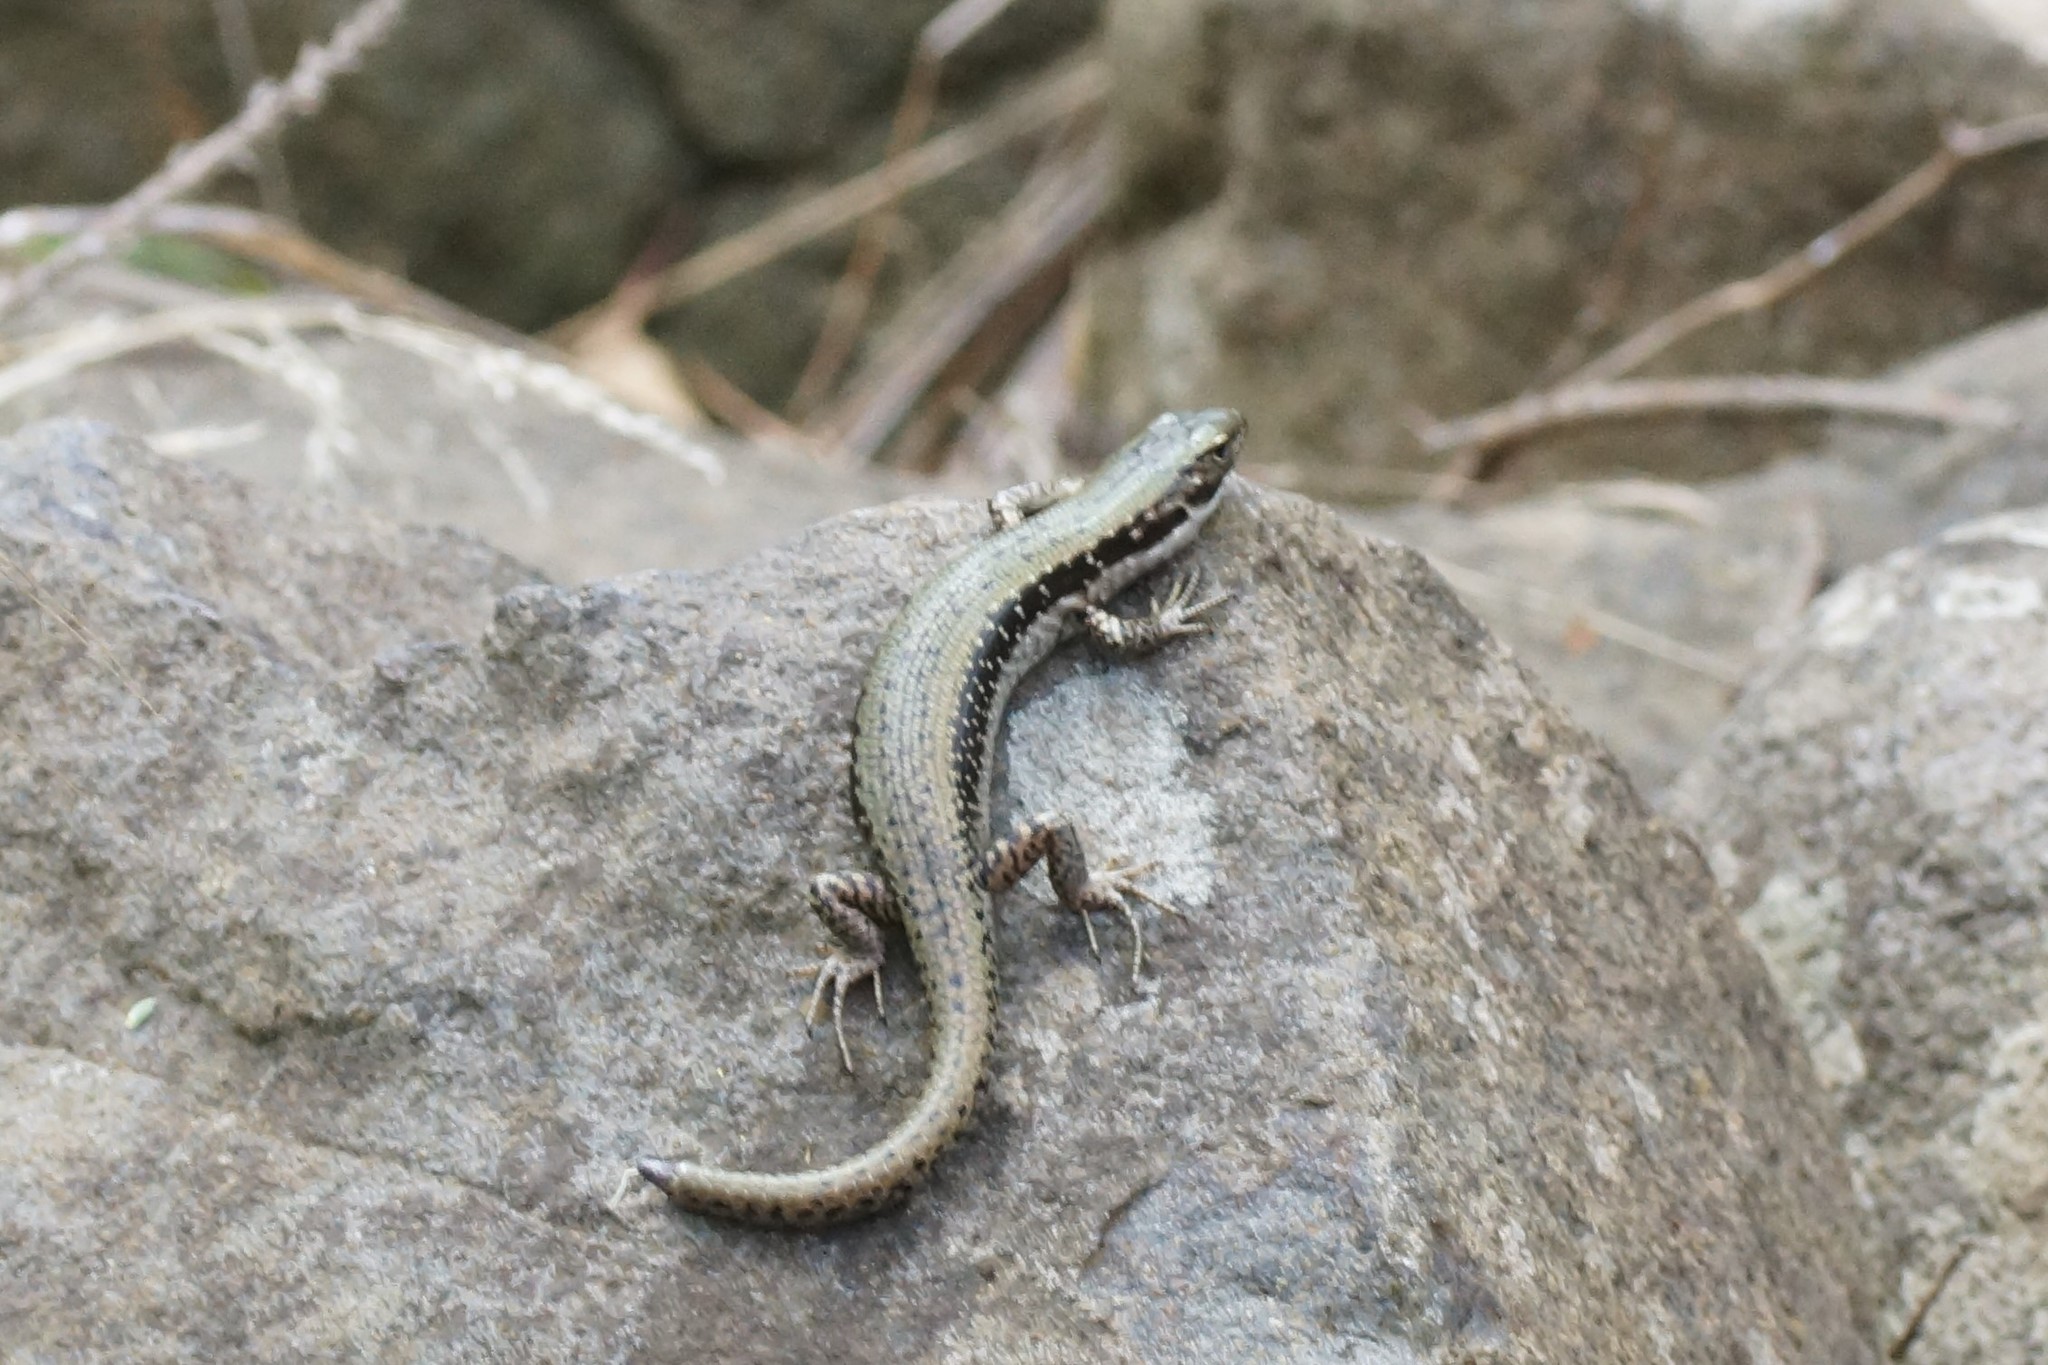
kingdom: Animalia
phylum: Chordata
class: Squamata
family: Scincidae
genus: Eulamprus
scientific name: Eulamprus tympanum
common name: Cool-temperate water-skink
